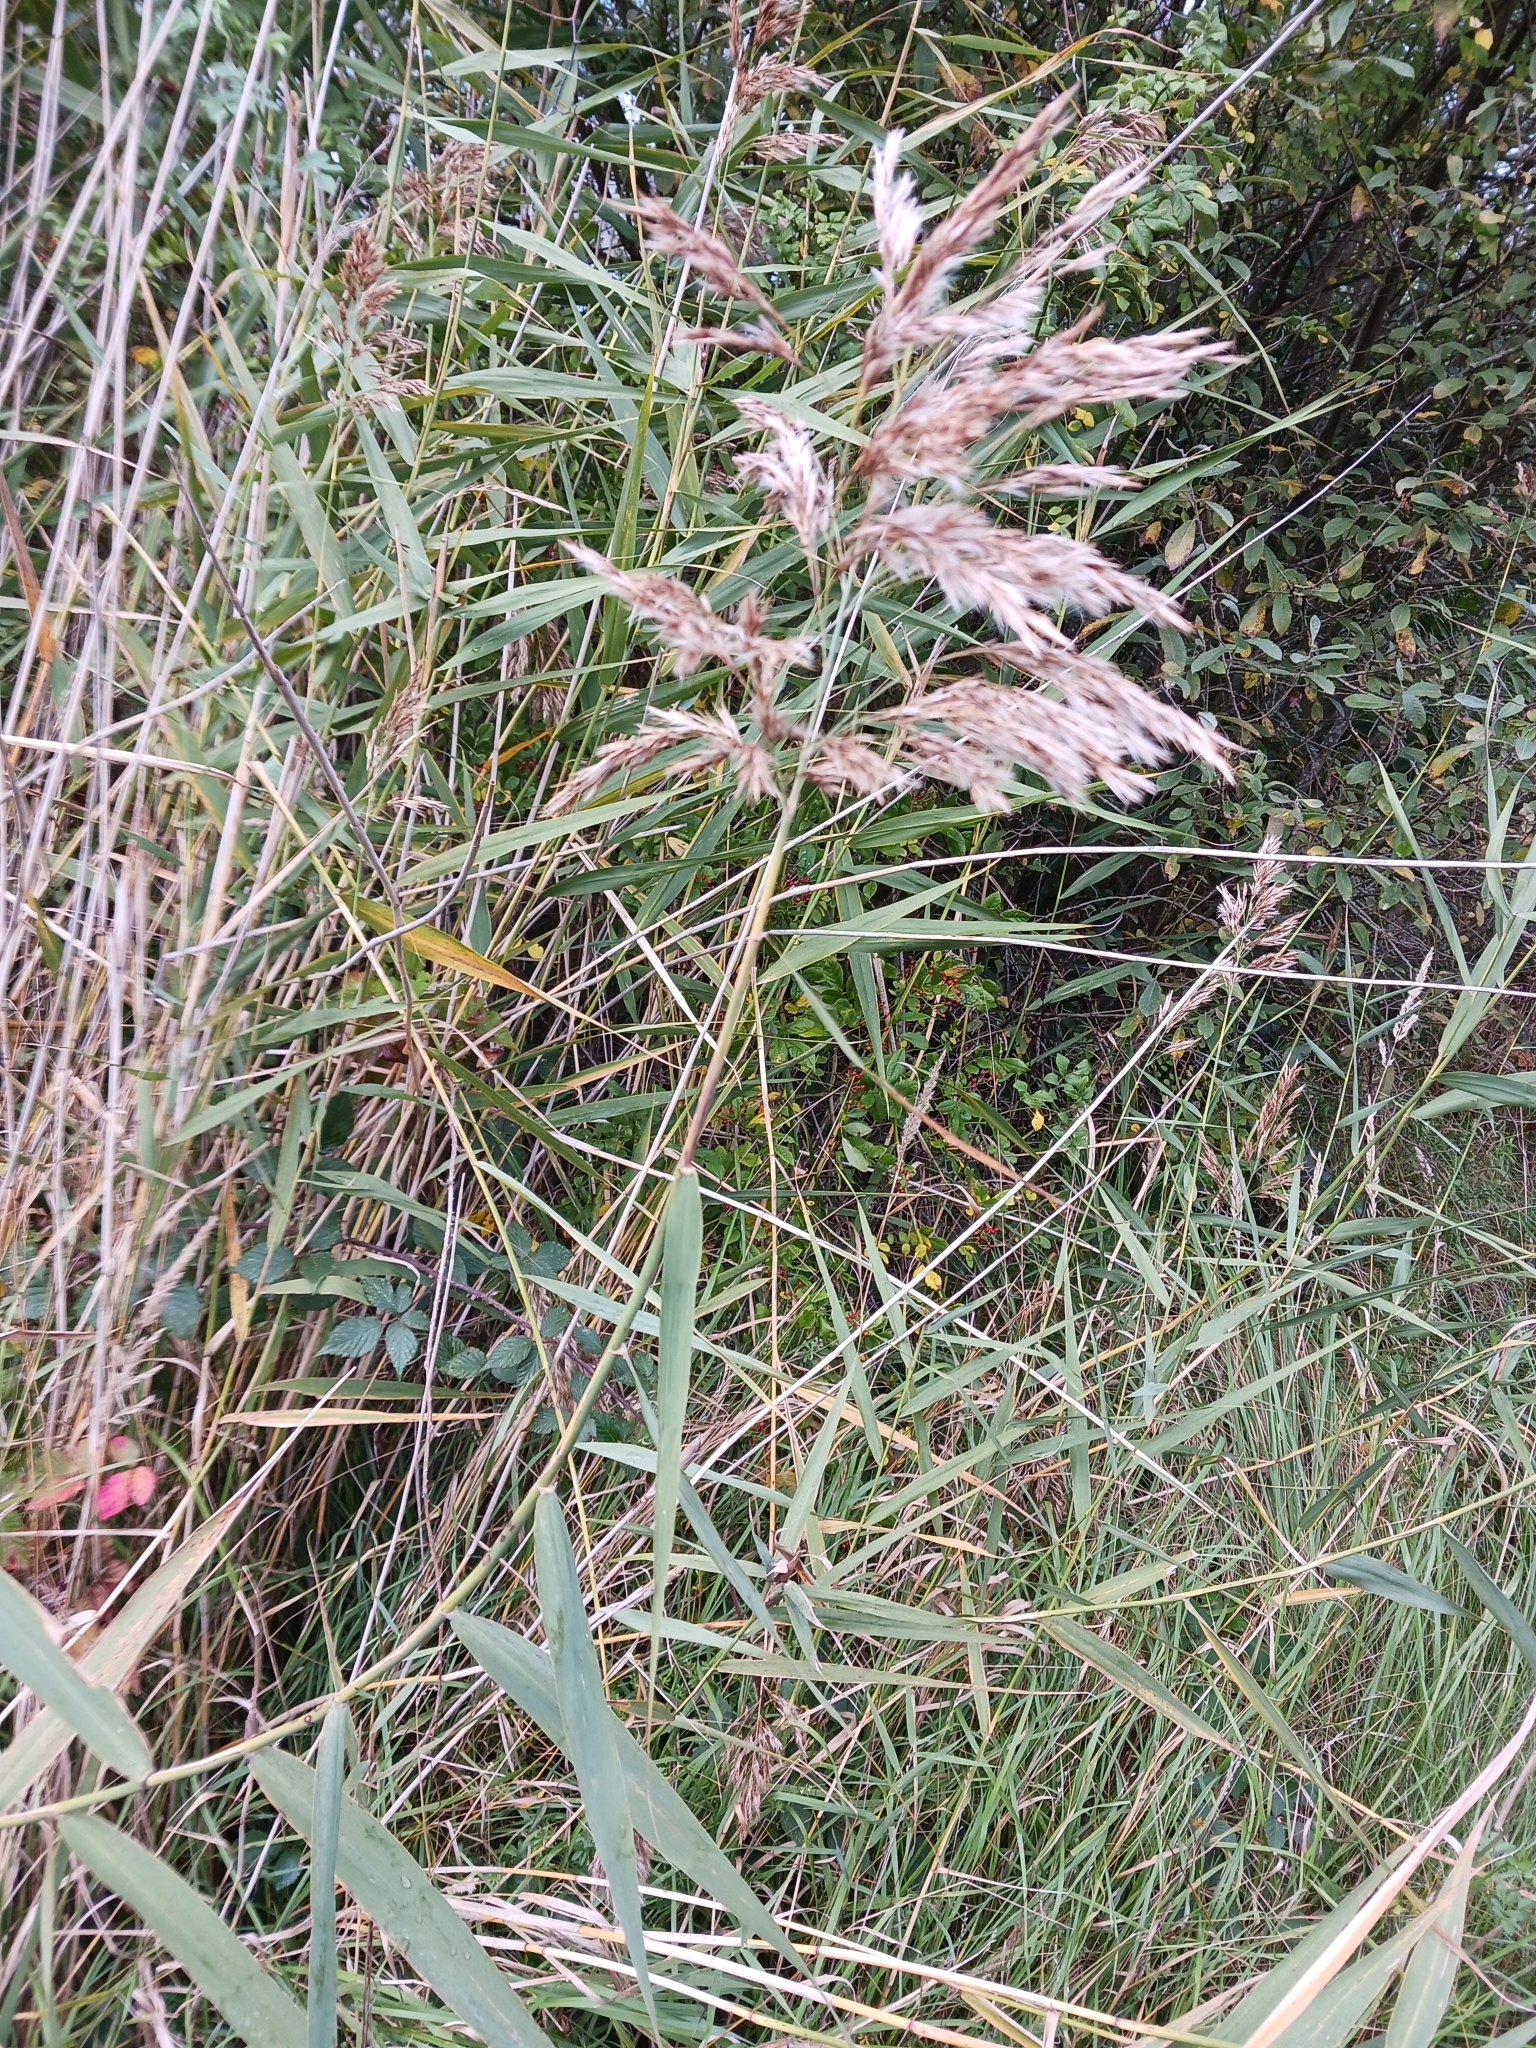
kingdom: Plantae
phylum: Tracheophyta
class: Liliopsida
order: Poales
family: Poaceae
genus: Phragmites
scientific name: Phragmites australis
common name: Common reed
